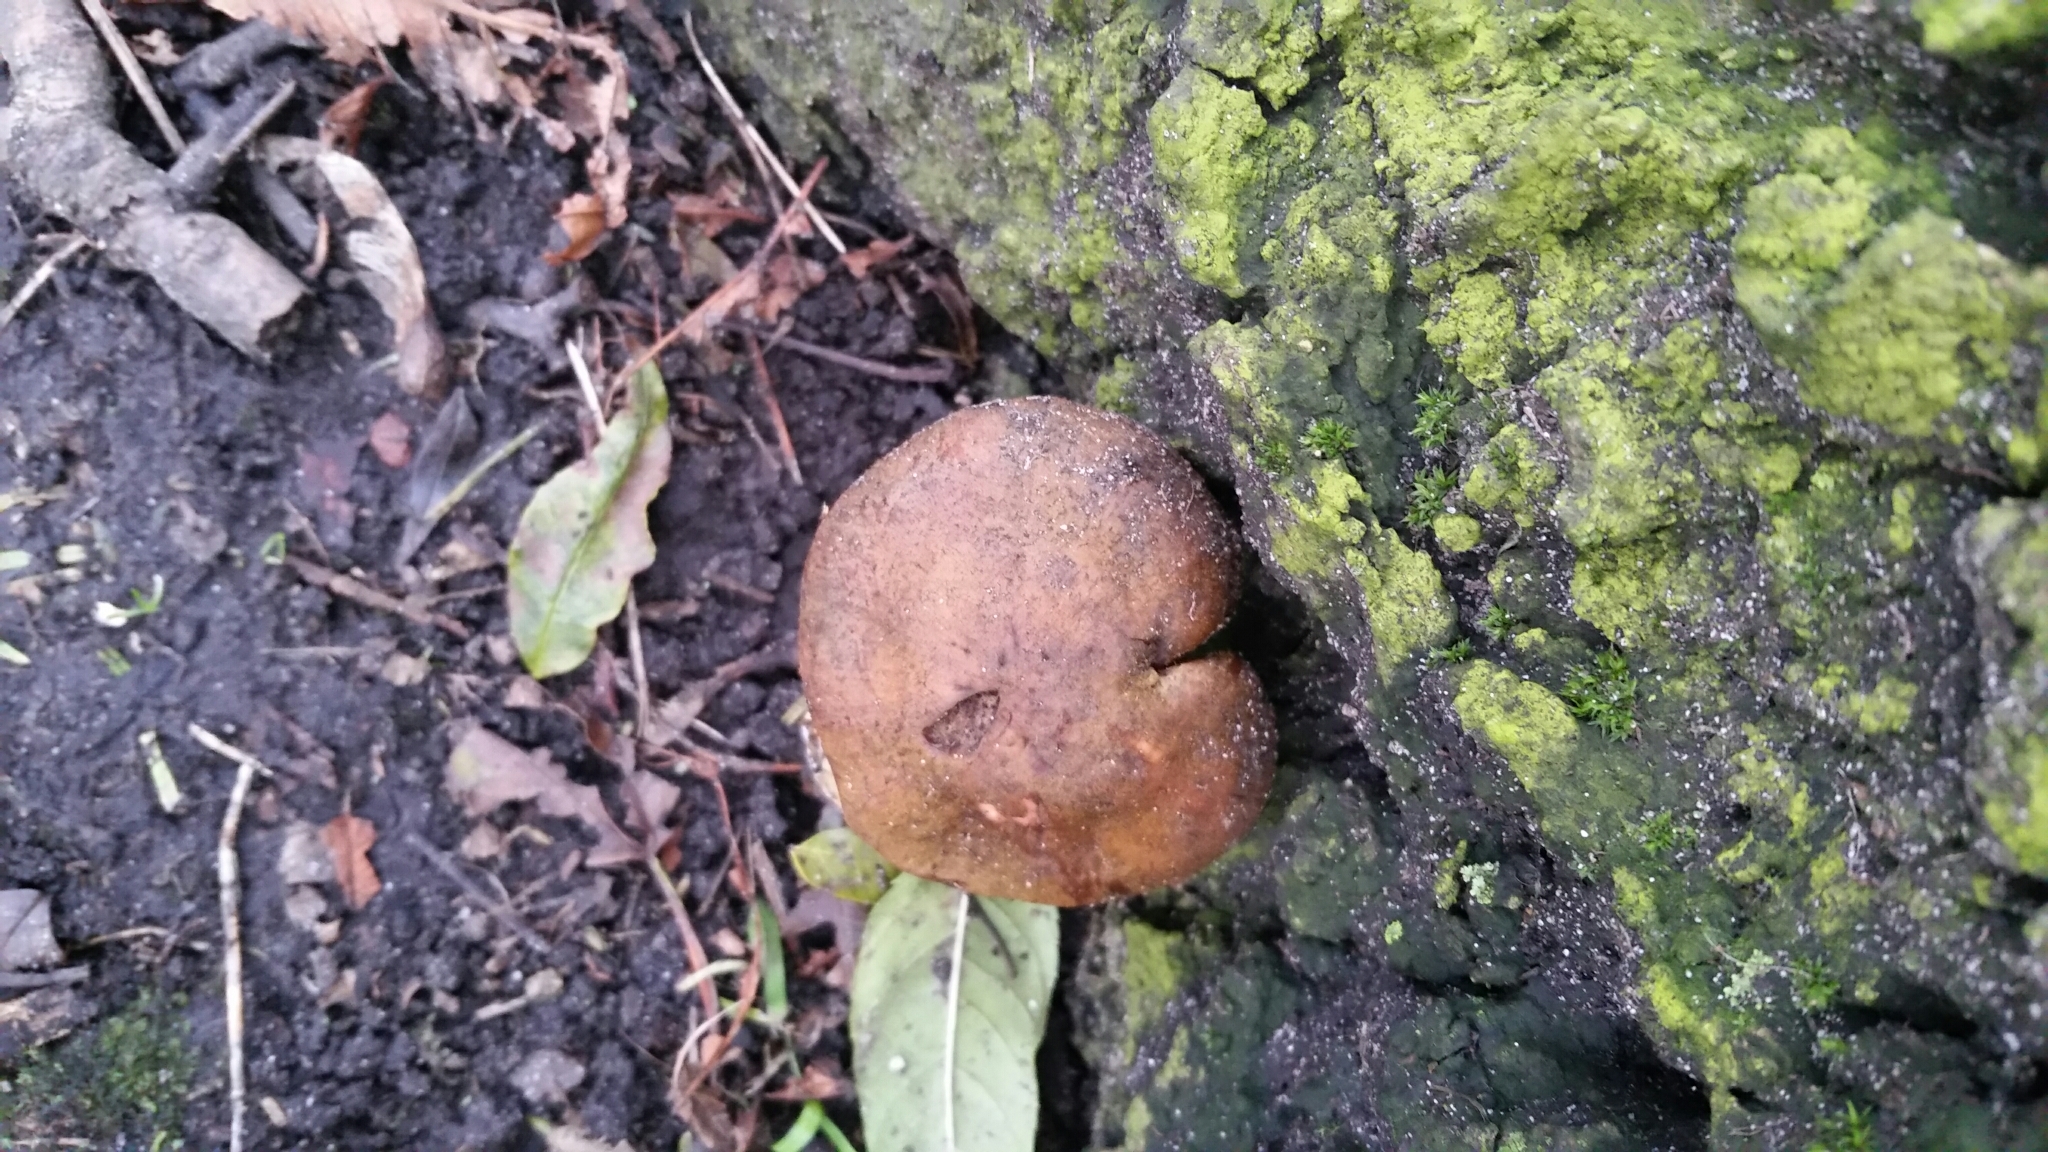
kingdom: Fungi
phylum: Basidiomycota
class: Agaricomycetes
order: Agaricales
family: Physalacriaceae
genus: Armillaria
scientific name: Armillaria ostoyae
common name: Dark honey fungus
